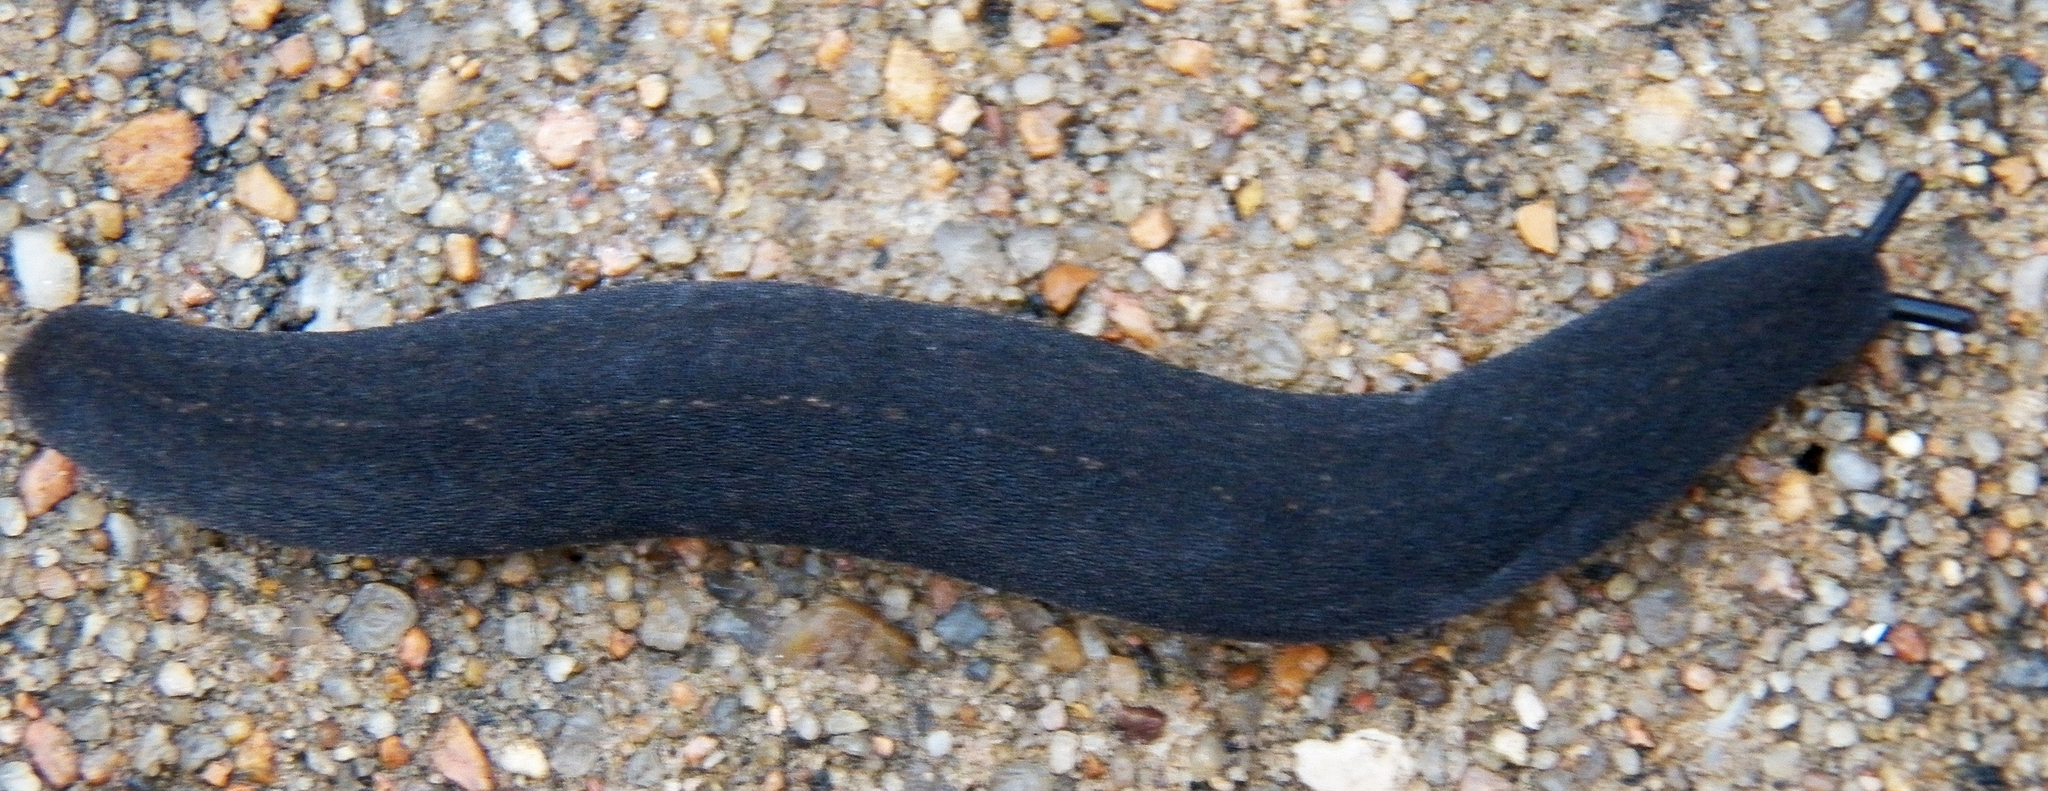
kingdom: Animalia
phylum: Mollusca
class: Gastropoda
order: Systellommatophora
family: Veronicellidae
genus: Belocaulus
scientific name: Belocaulus angustipes
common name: Black velvet leatherleaf slug
